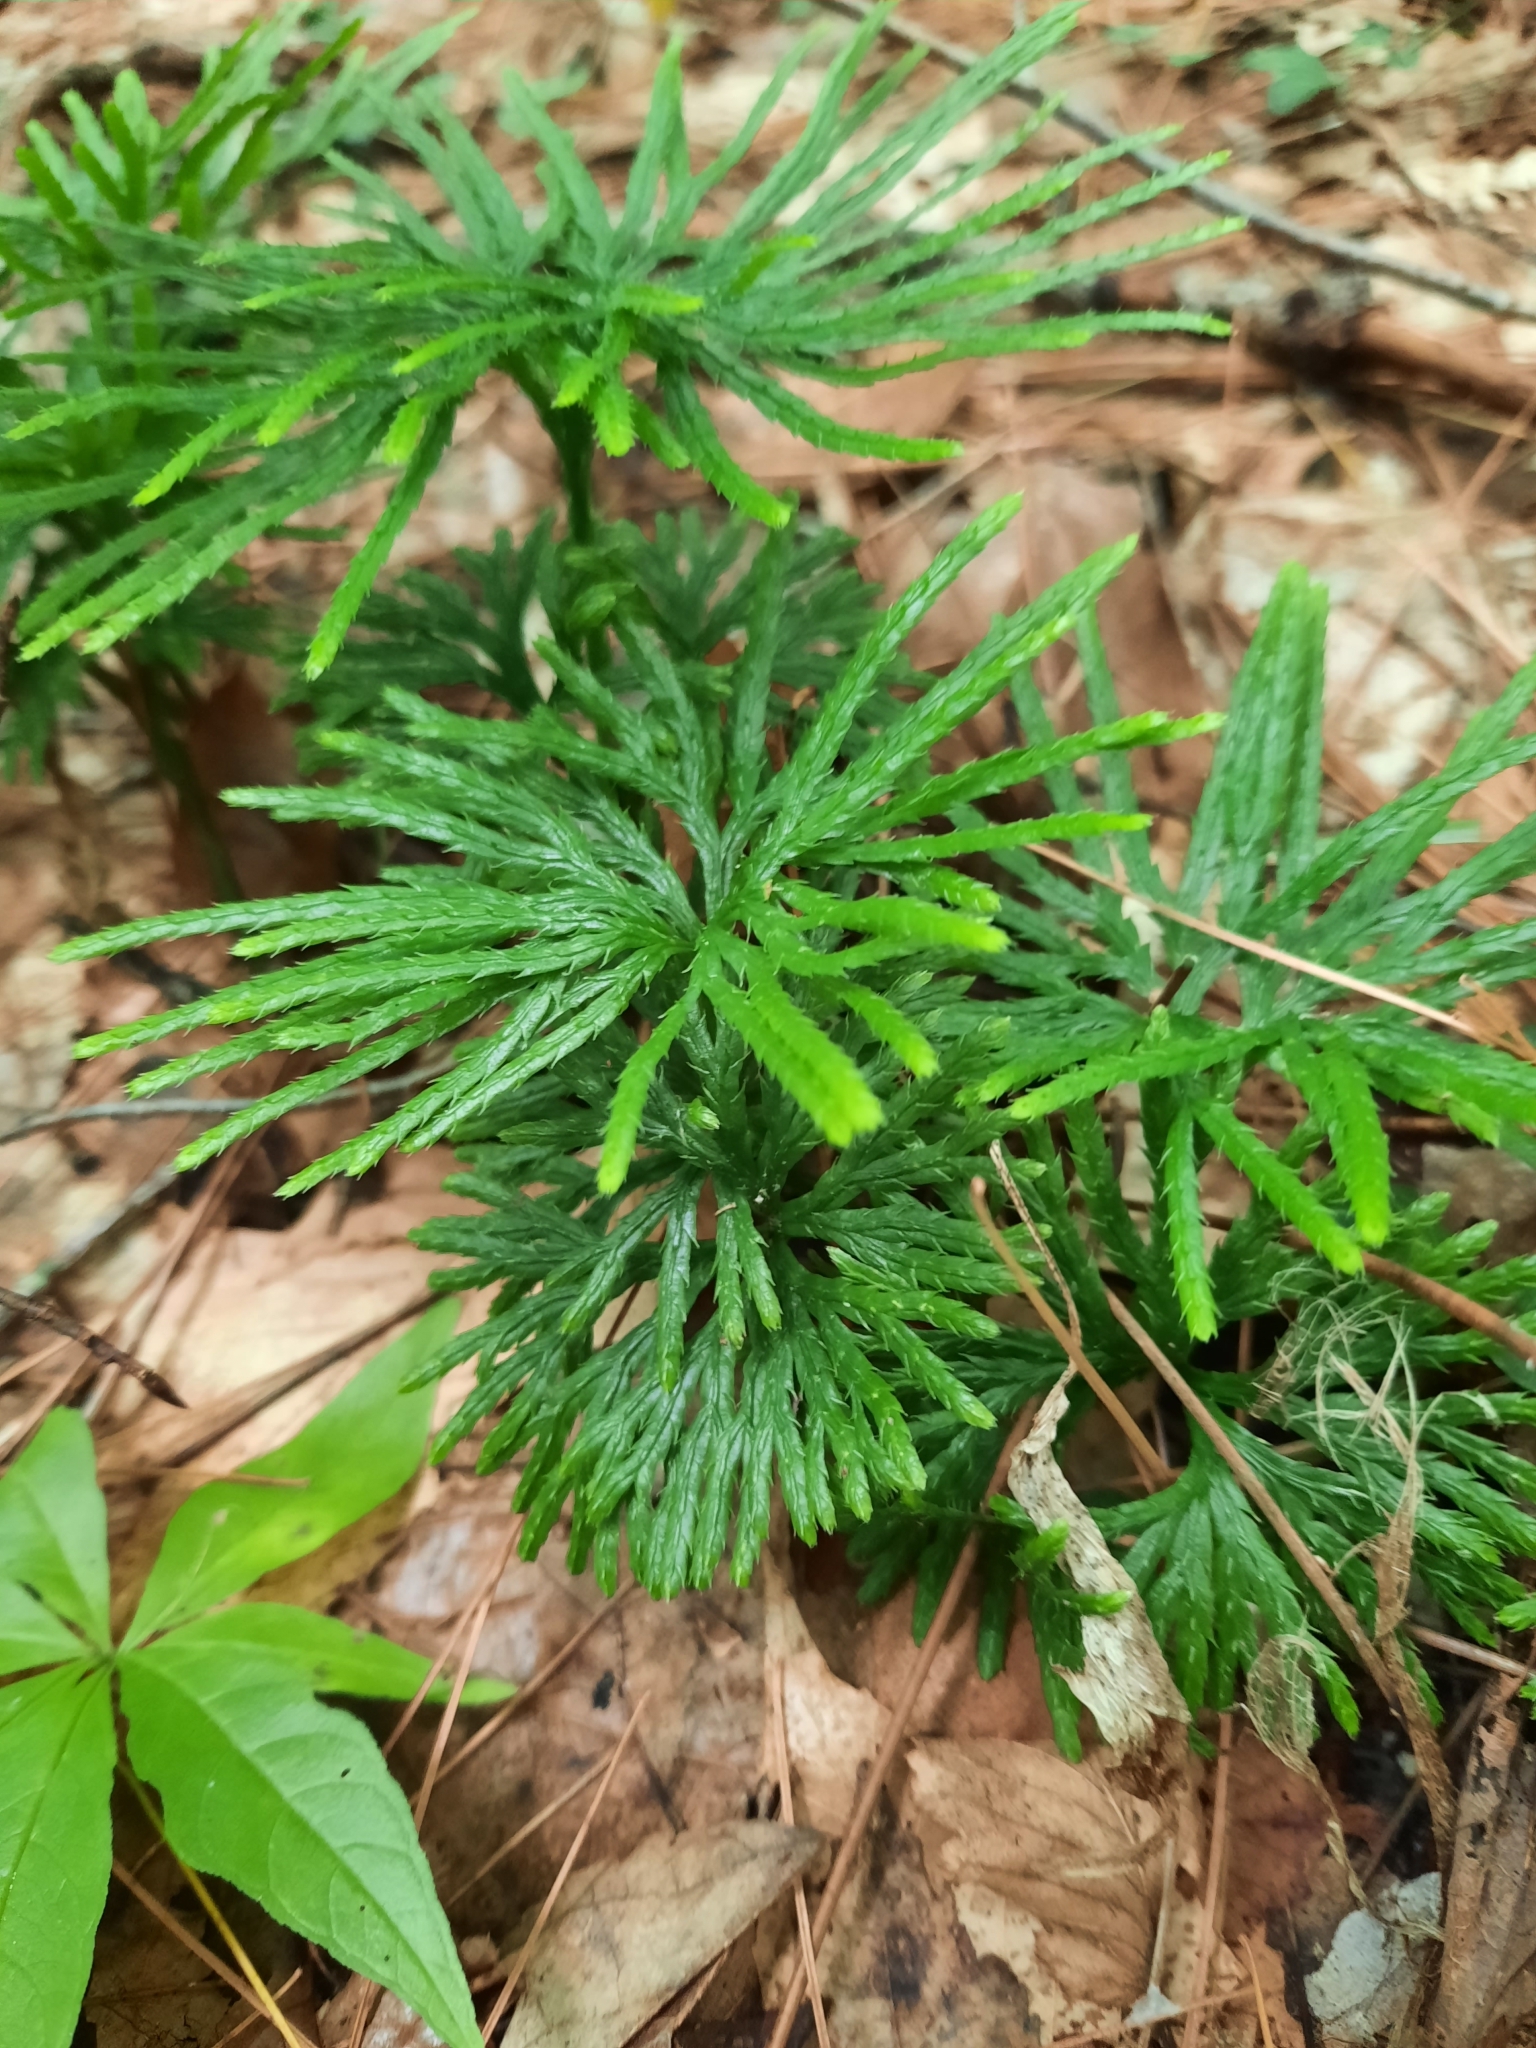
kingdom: Plantae
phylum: Tracheophyta
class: Lycopodiopsida
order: Lycopodiales
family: Lycopodiaceae
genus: Diphasiastrum
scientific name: Diphasiastrum digitatum
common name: Southern running-pine
